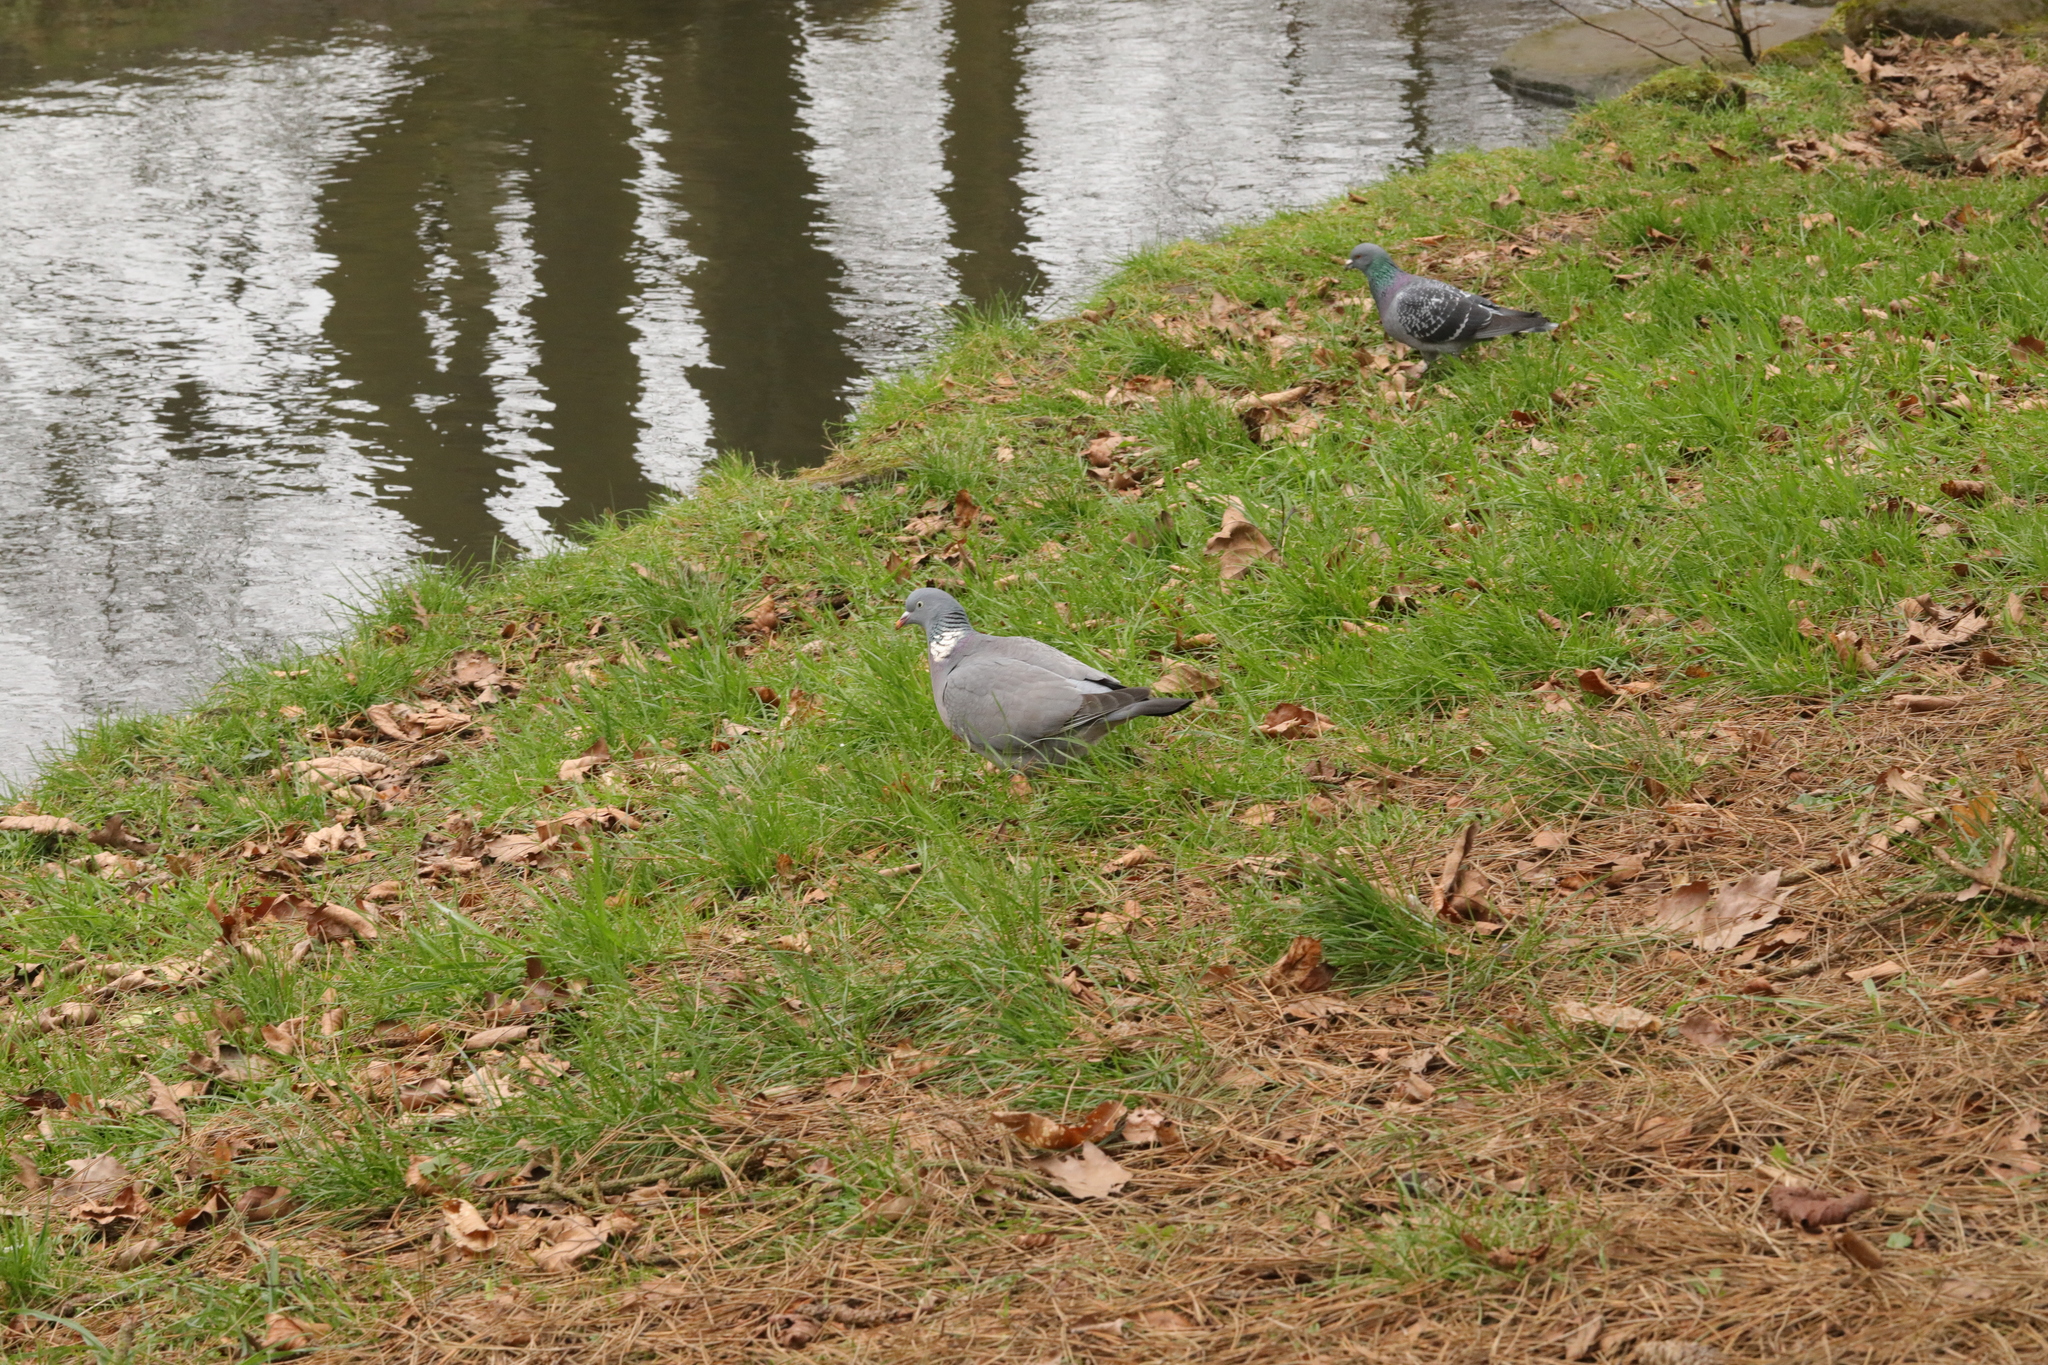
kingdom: Animalia
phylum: Chordata
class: Aves
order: Columbiformes
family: Columbidae
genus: Columba
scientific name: Columba palumbus
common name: Common wood pigeon
